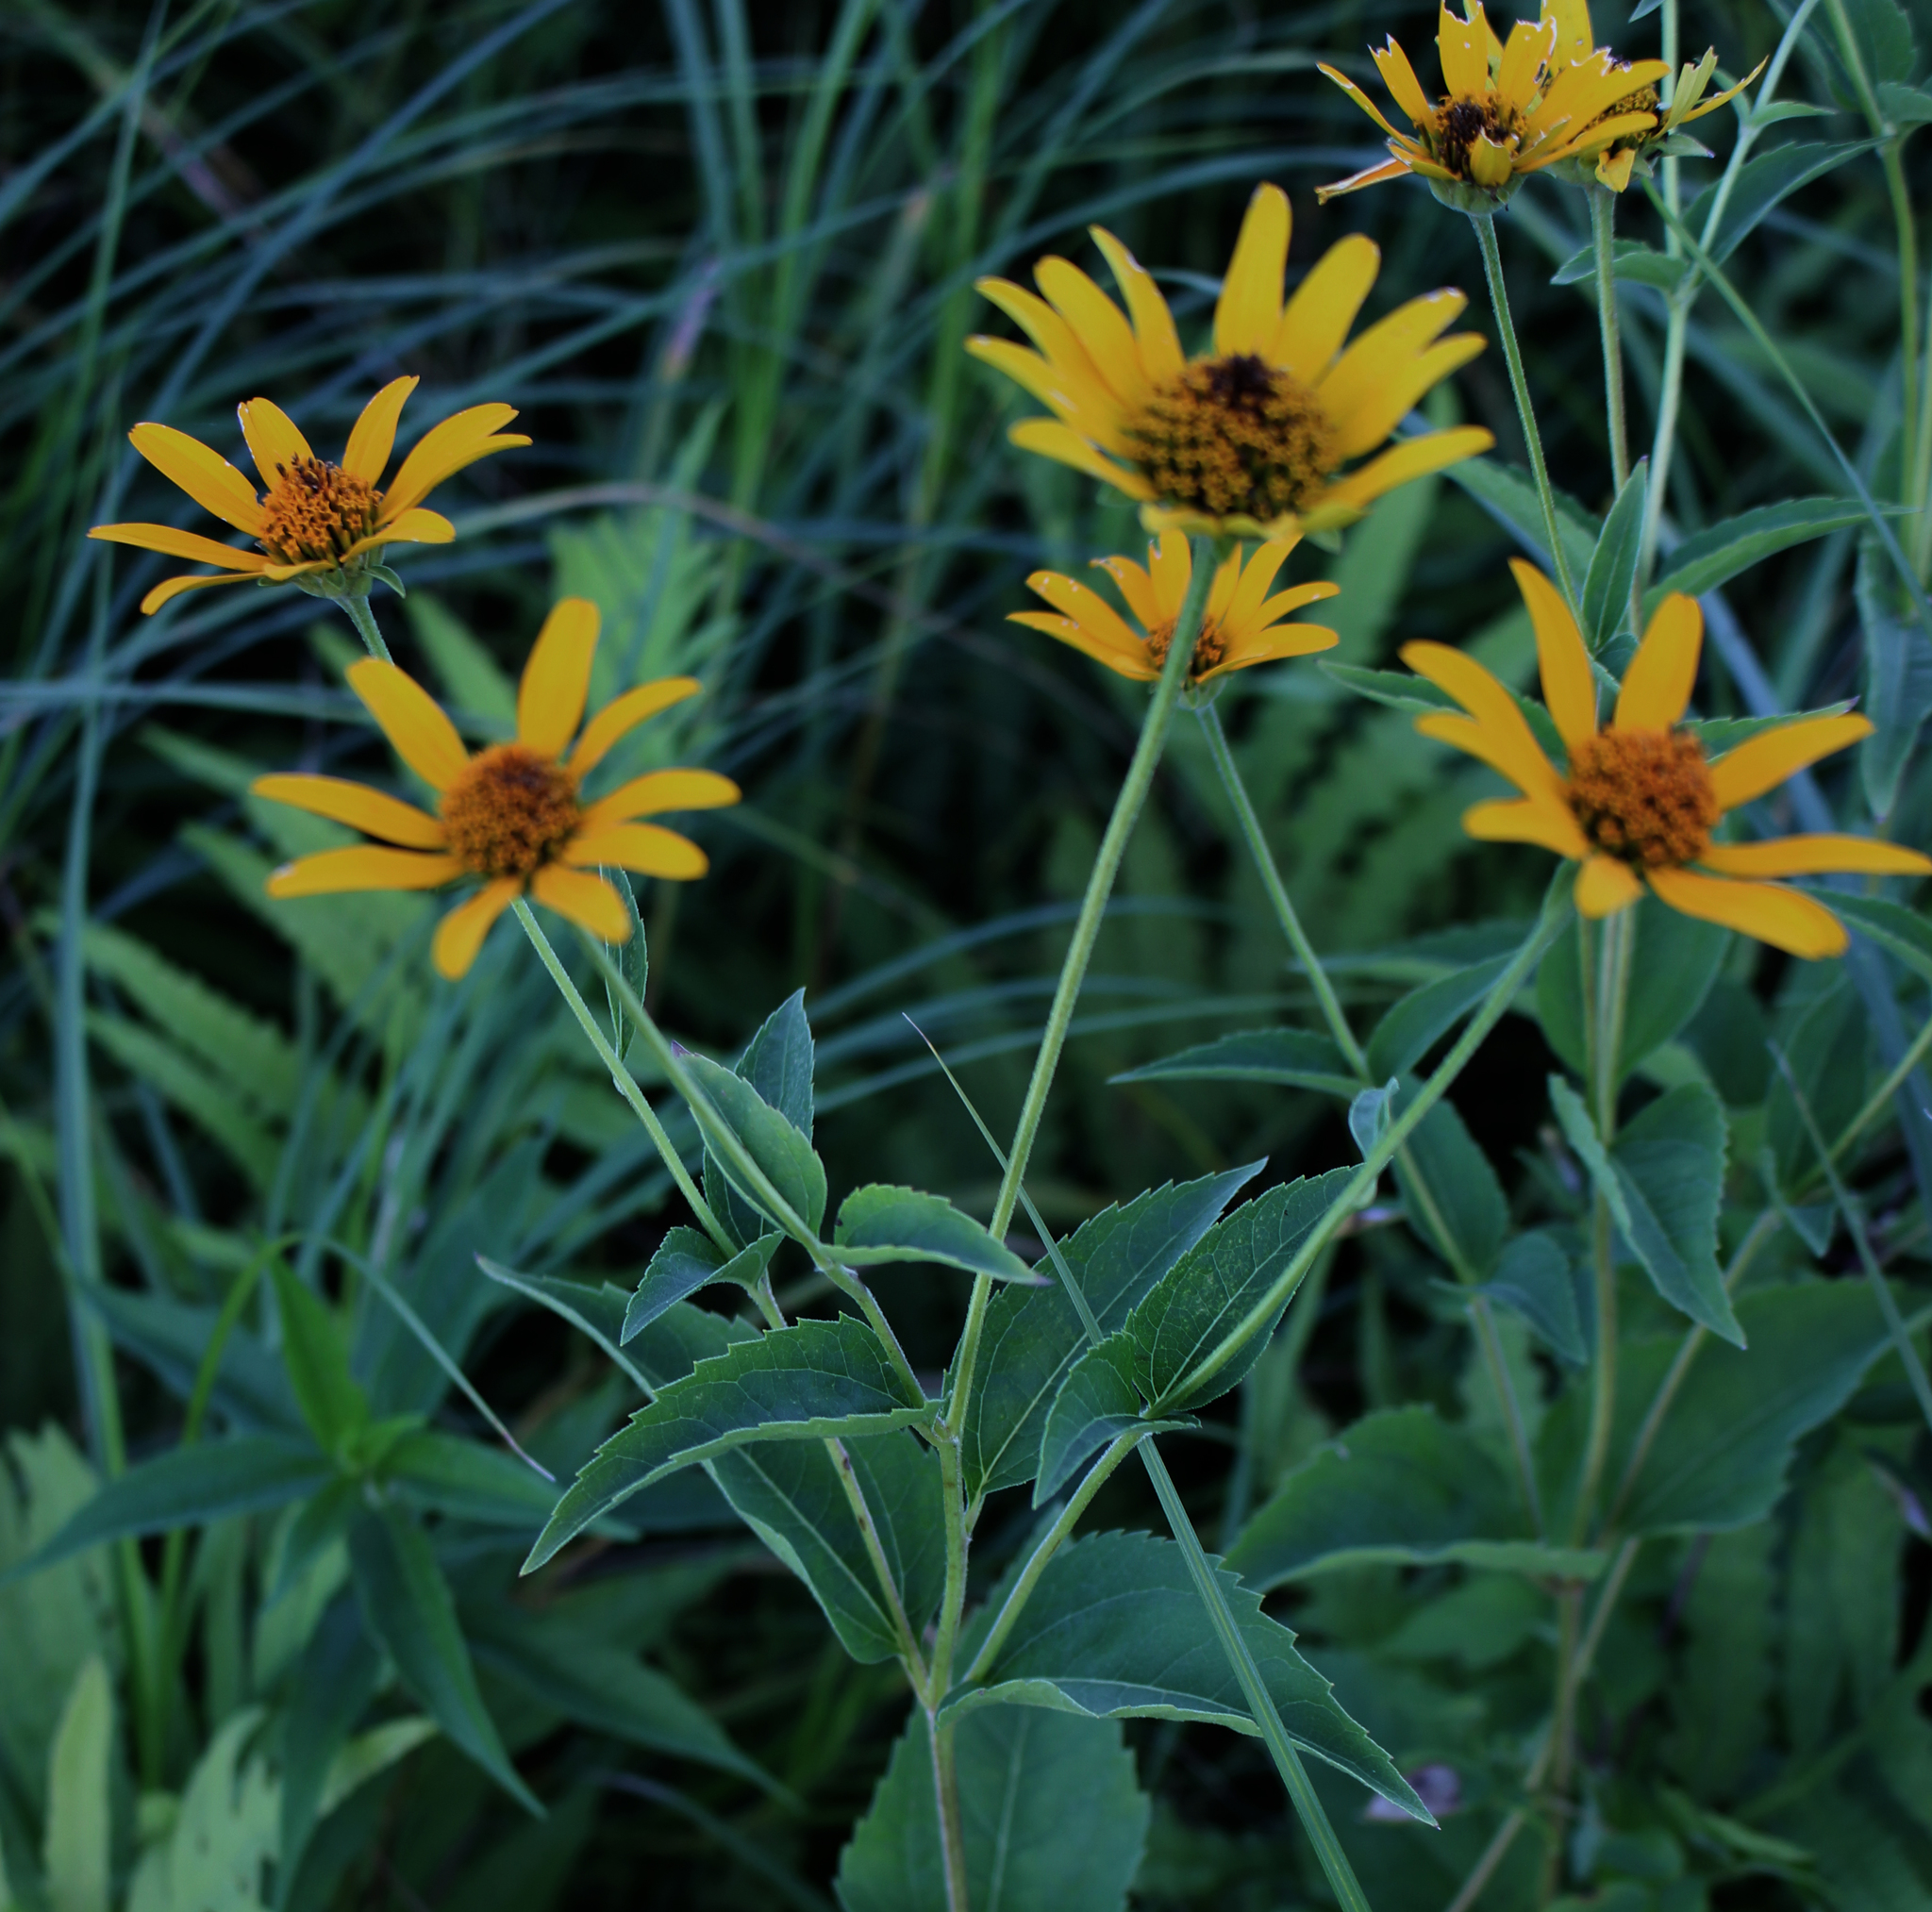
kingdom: Plantae
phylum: Tracheophyta
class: Magnoliopsida
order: Asterales
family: Asteraceae
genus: Heliopsis
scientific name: Heliopsis helianthoides
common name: False sunflower
